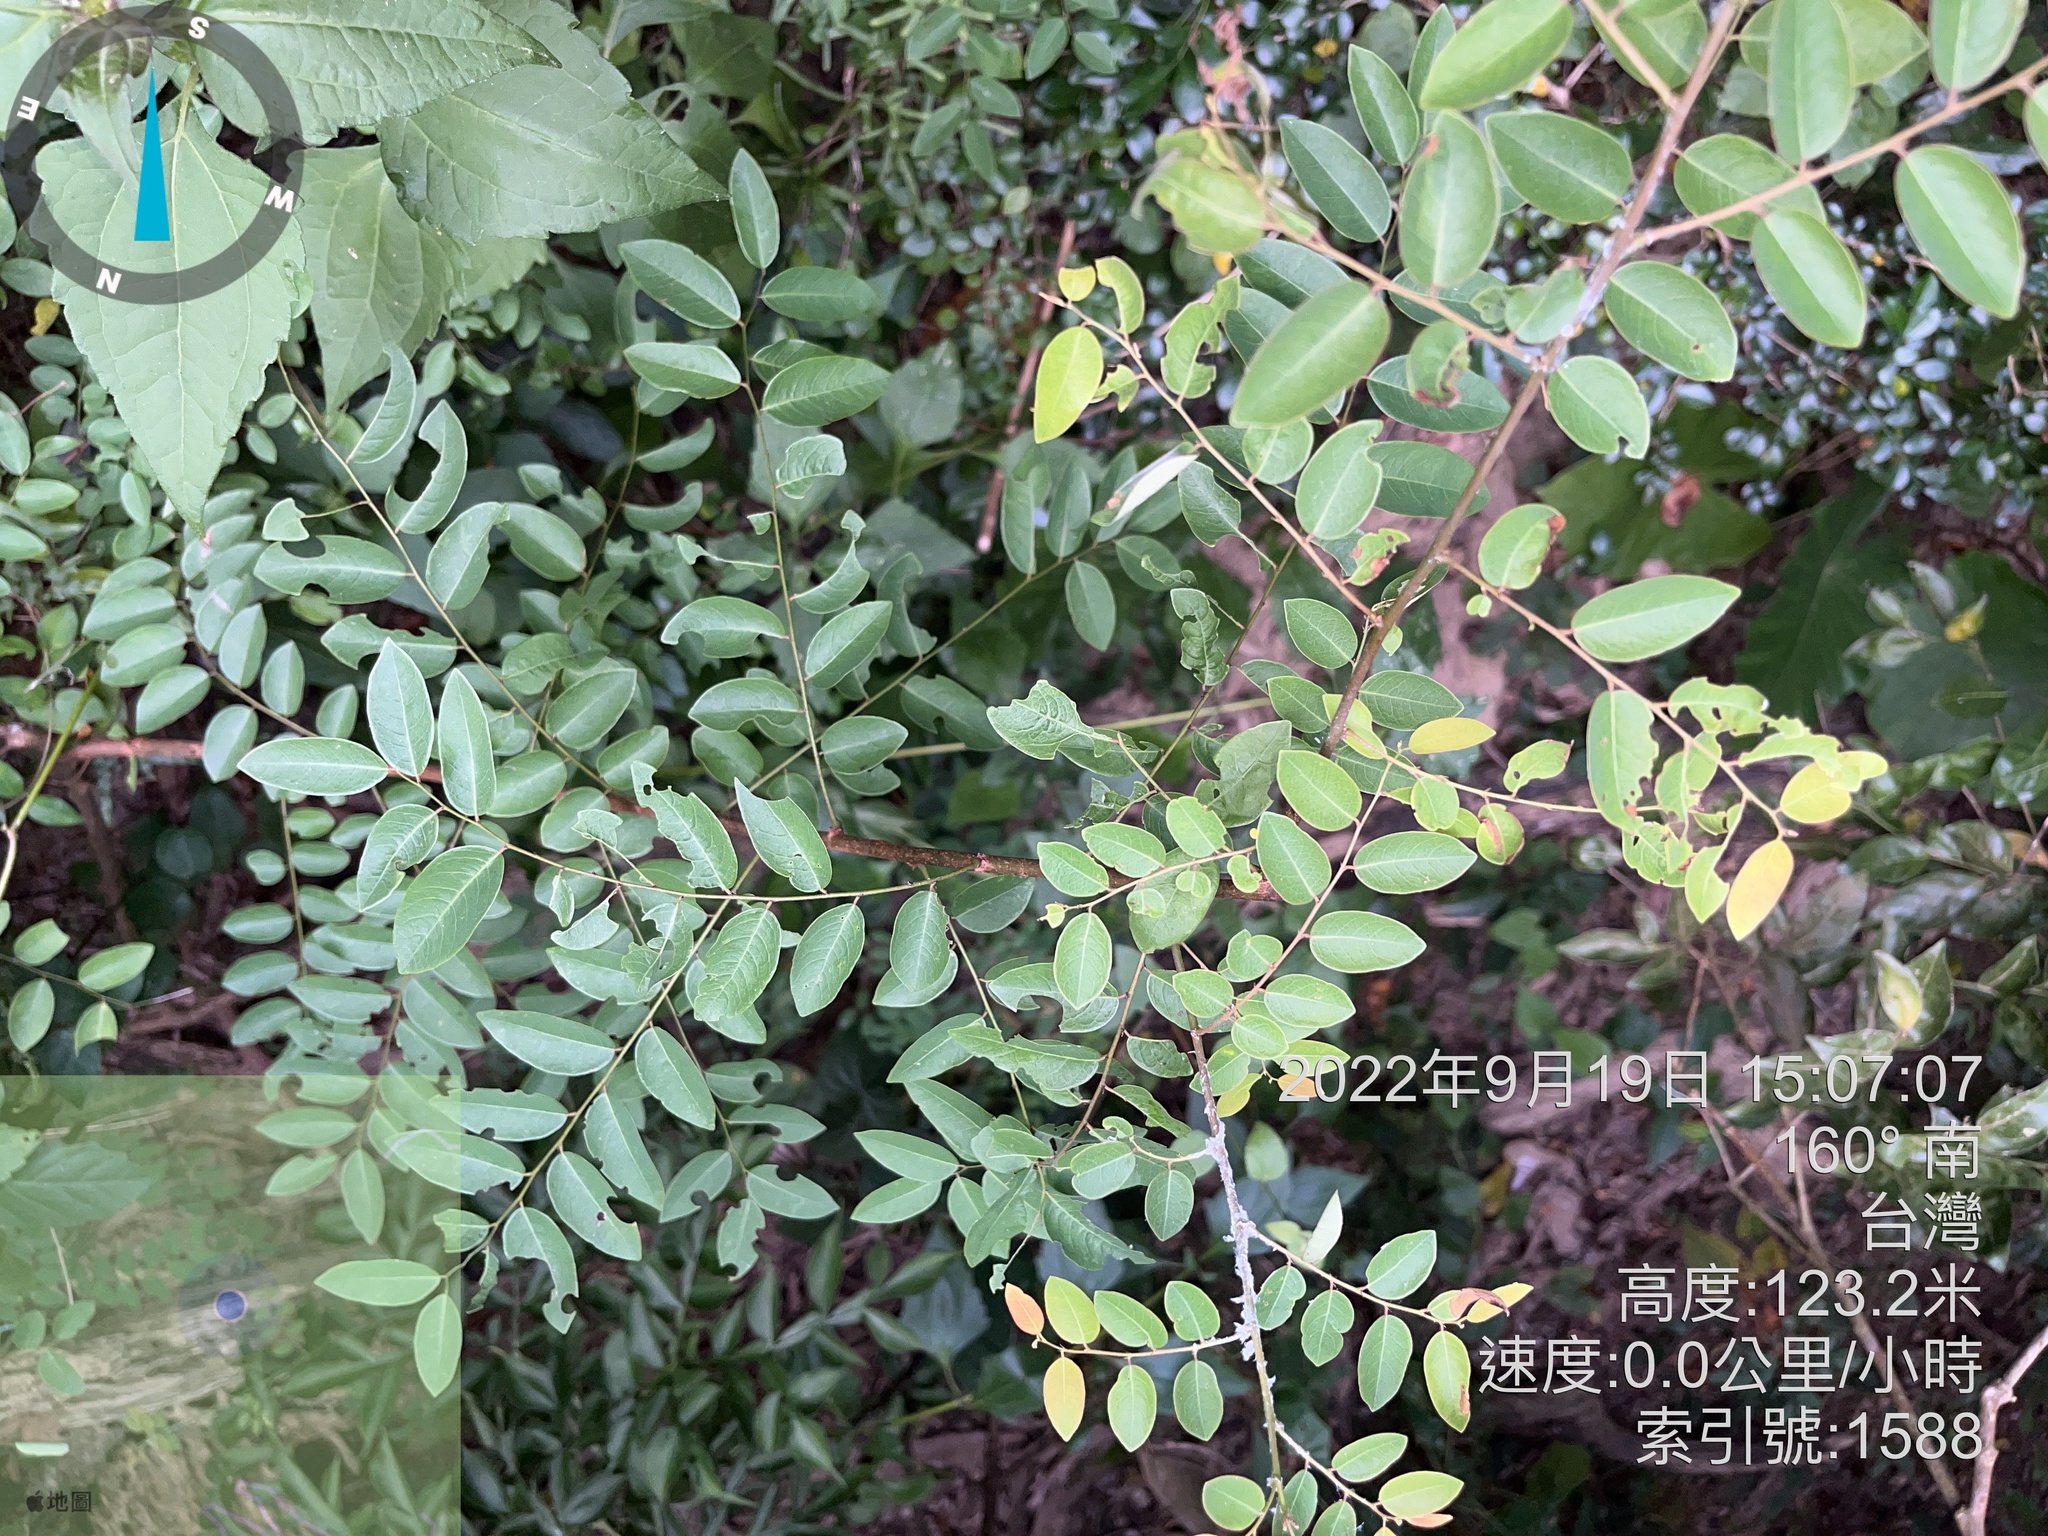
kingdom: Plantae
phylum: Tracheophyta
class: Magnoliopsida
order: Malpighiales
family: Phyllanthaceae
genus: Phyllanthus
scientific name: Phyllanthus reticulatus
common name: Potato bush
